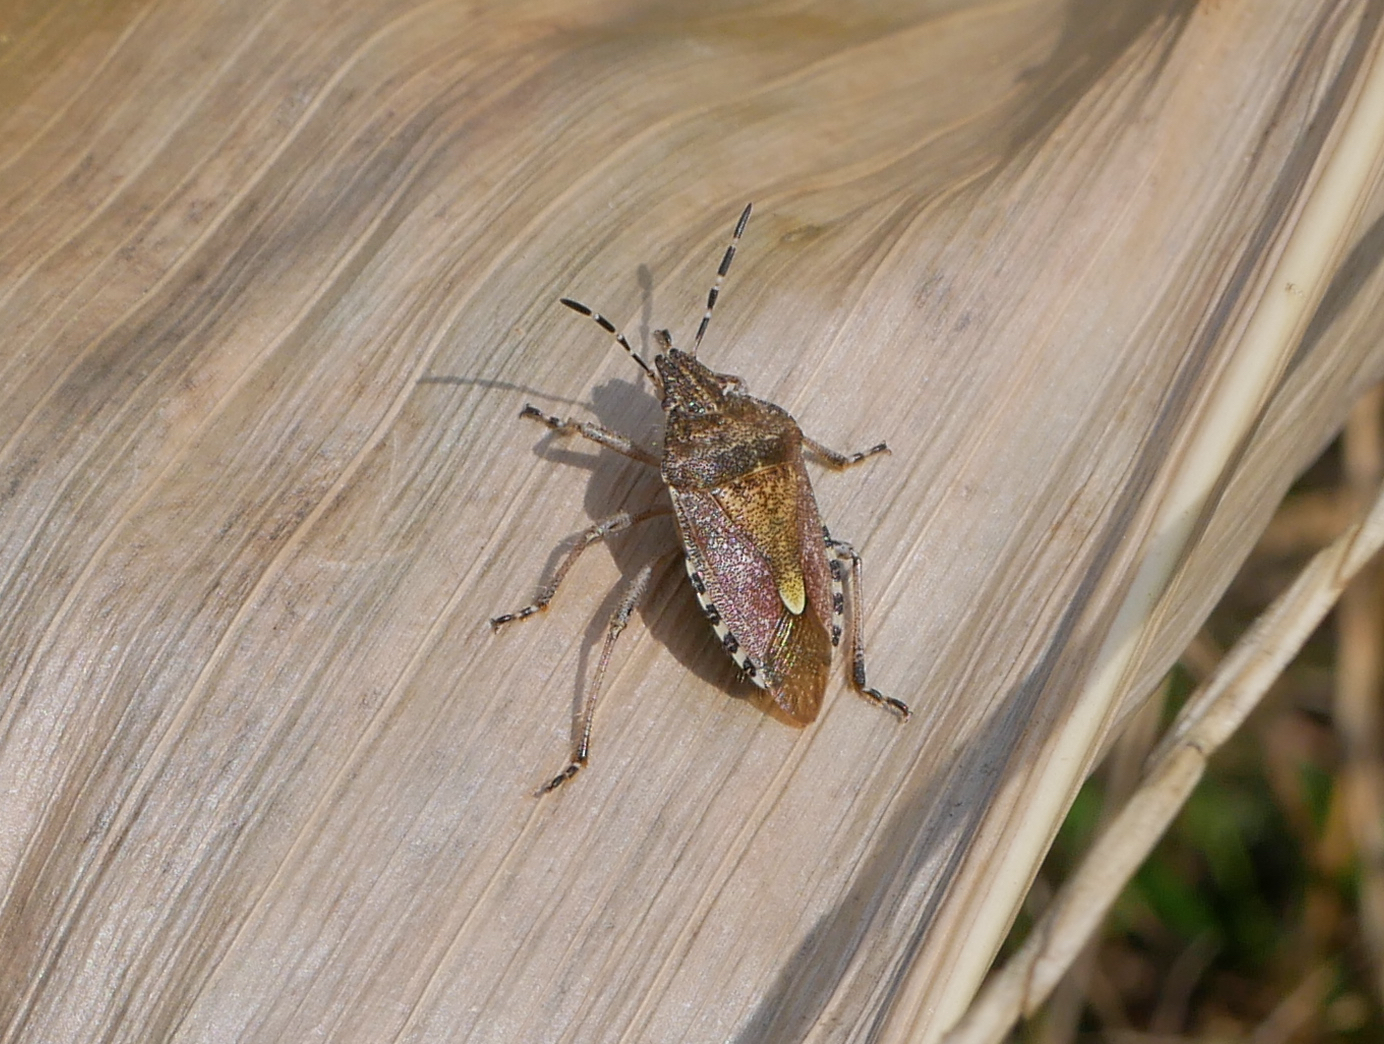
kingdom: Animalia
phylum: Arthropoda
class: Insecta
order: Hemiptera
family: Pentatomidae
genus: Dolycoris
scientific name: Dolycoris baccarum
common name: Sloe bug
